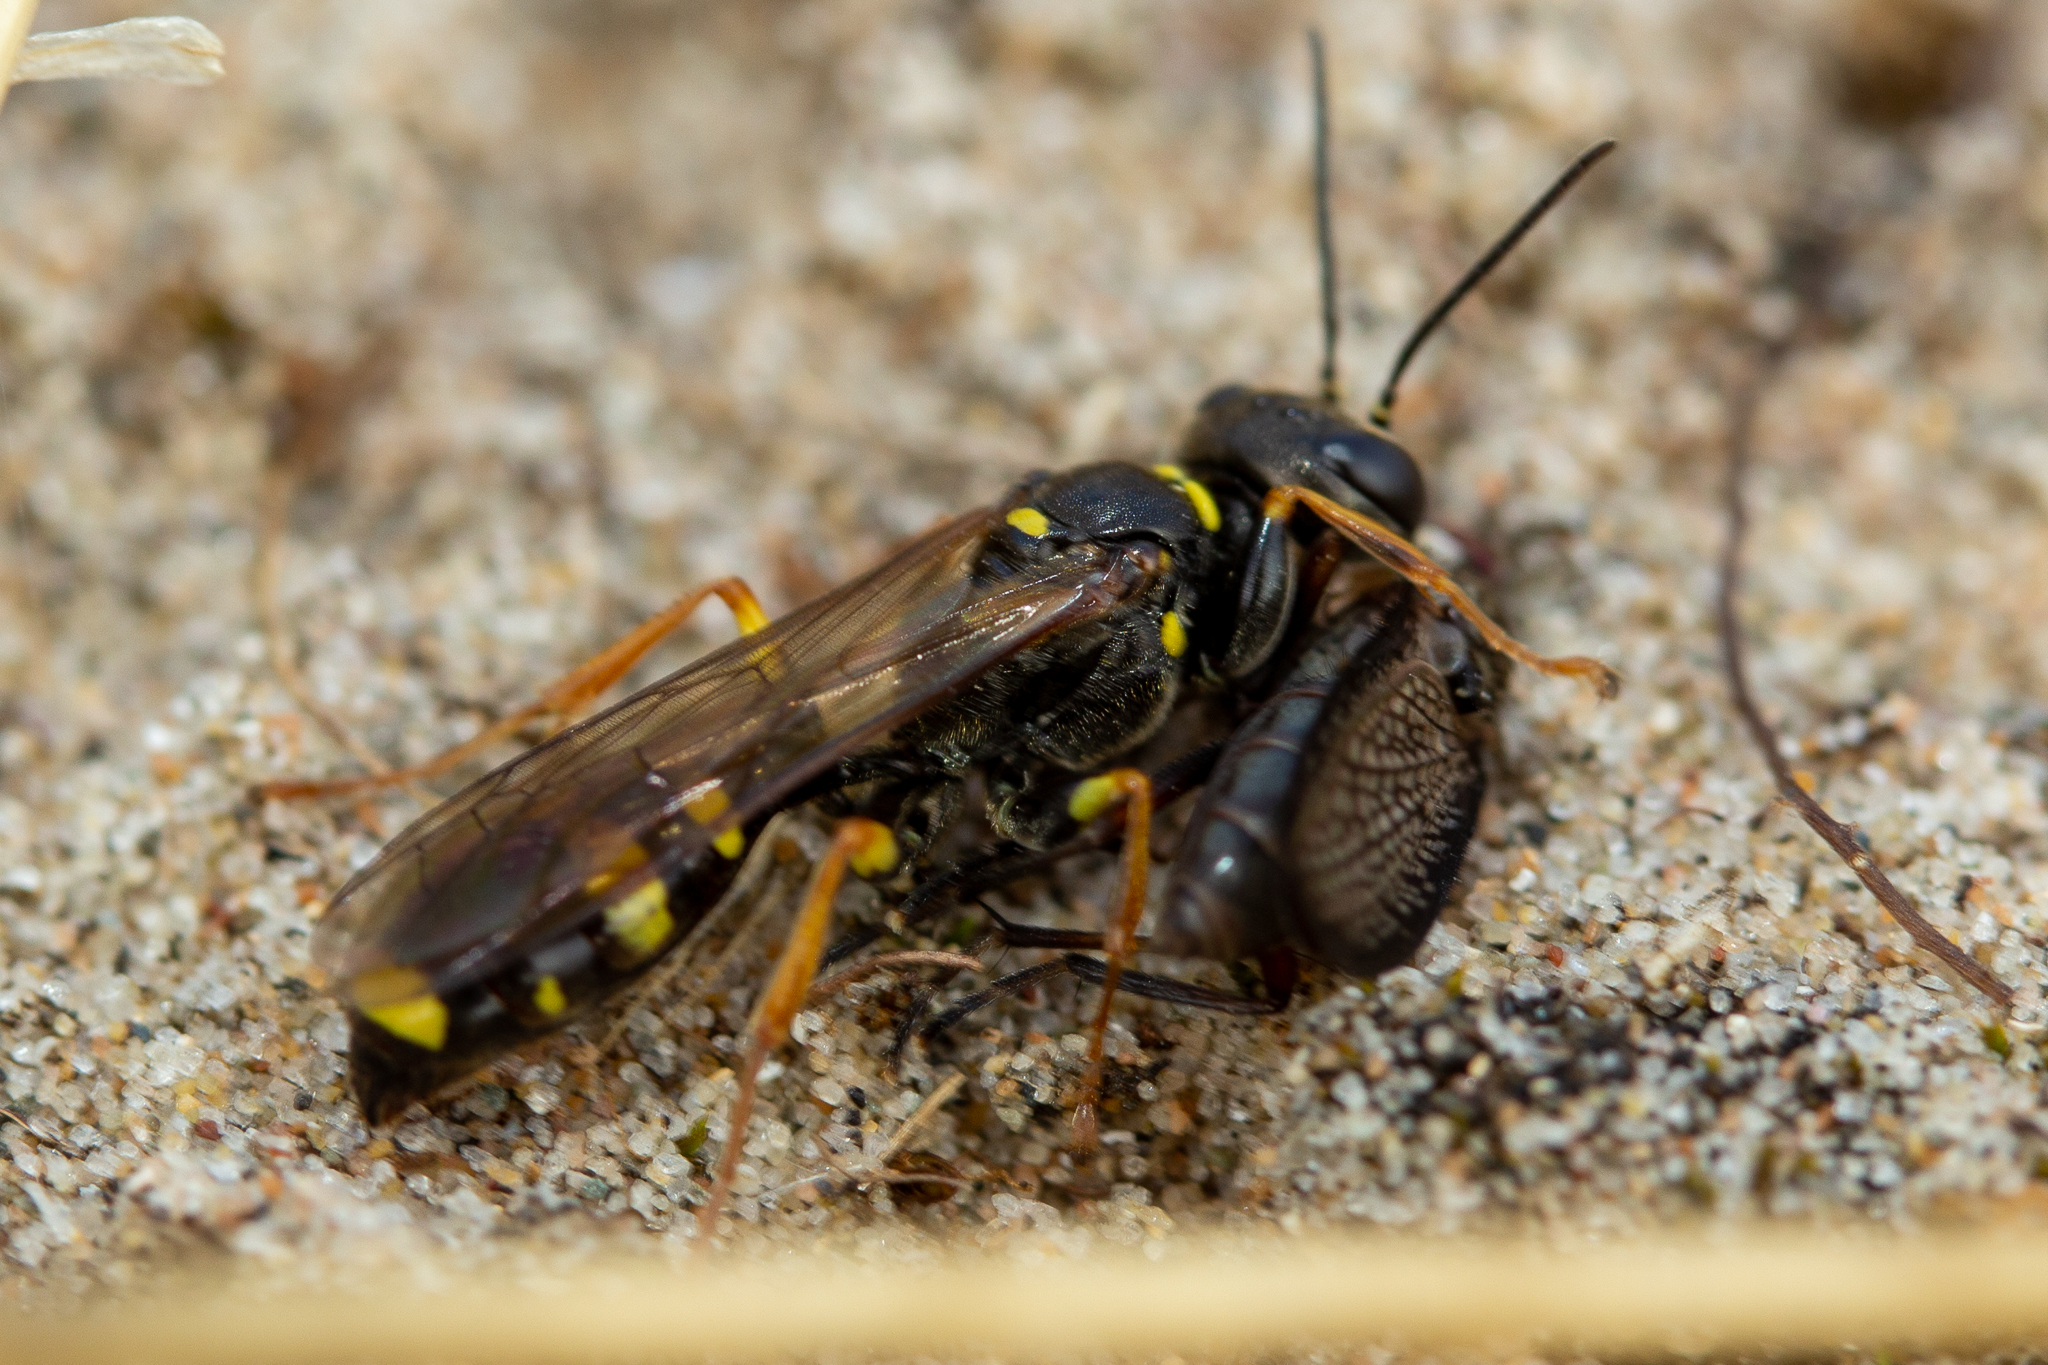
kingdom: Animalia
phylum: Arthropoda
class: Insecta
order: Hymenoptera
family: Crabronidae
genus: Mellinus
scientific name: Mellinus arvensis
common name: Field digger wasp
